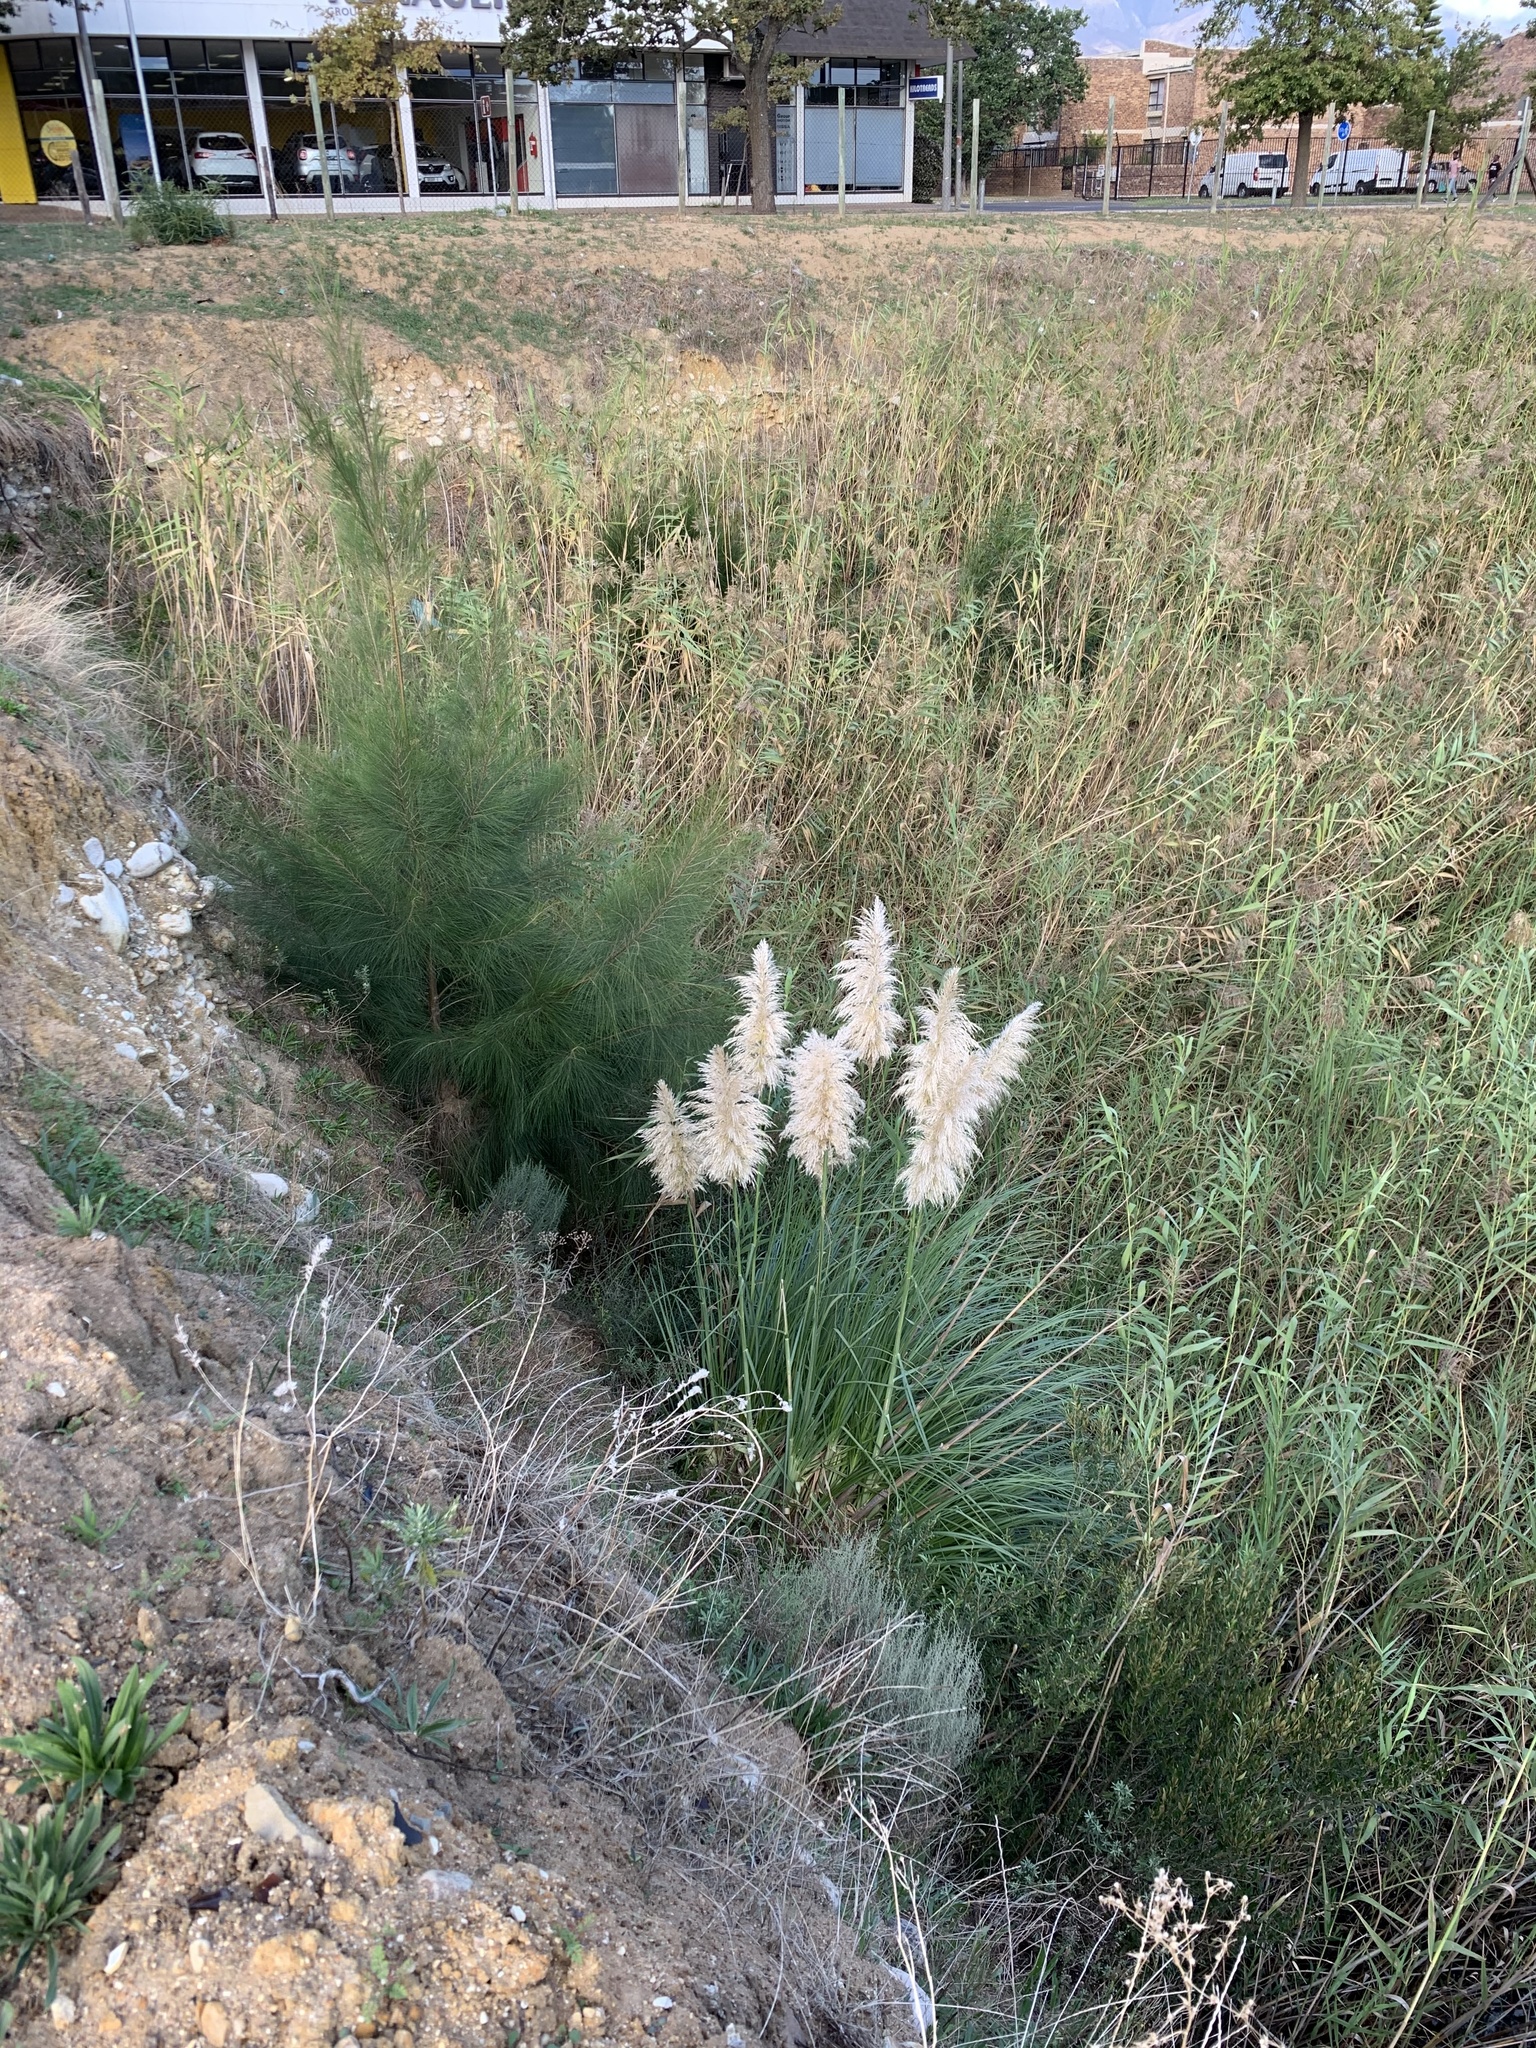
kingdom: Plantae
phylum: Tracheophyta
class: Liliopsida
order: Poales
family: Poaceae
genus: Cortaderia
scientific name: Cortaderia selloana
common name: Uruguayan pampas grass
